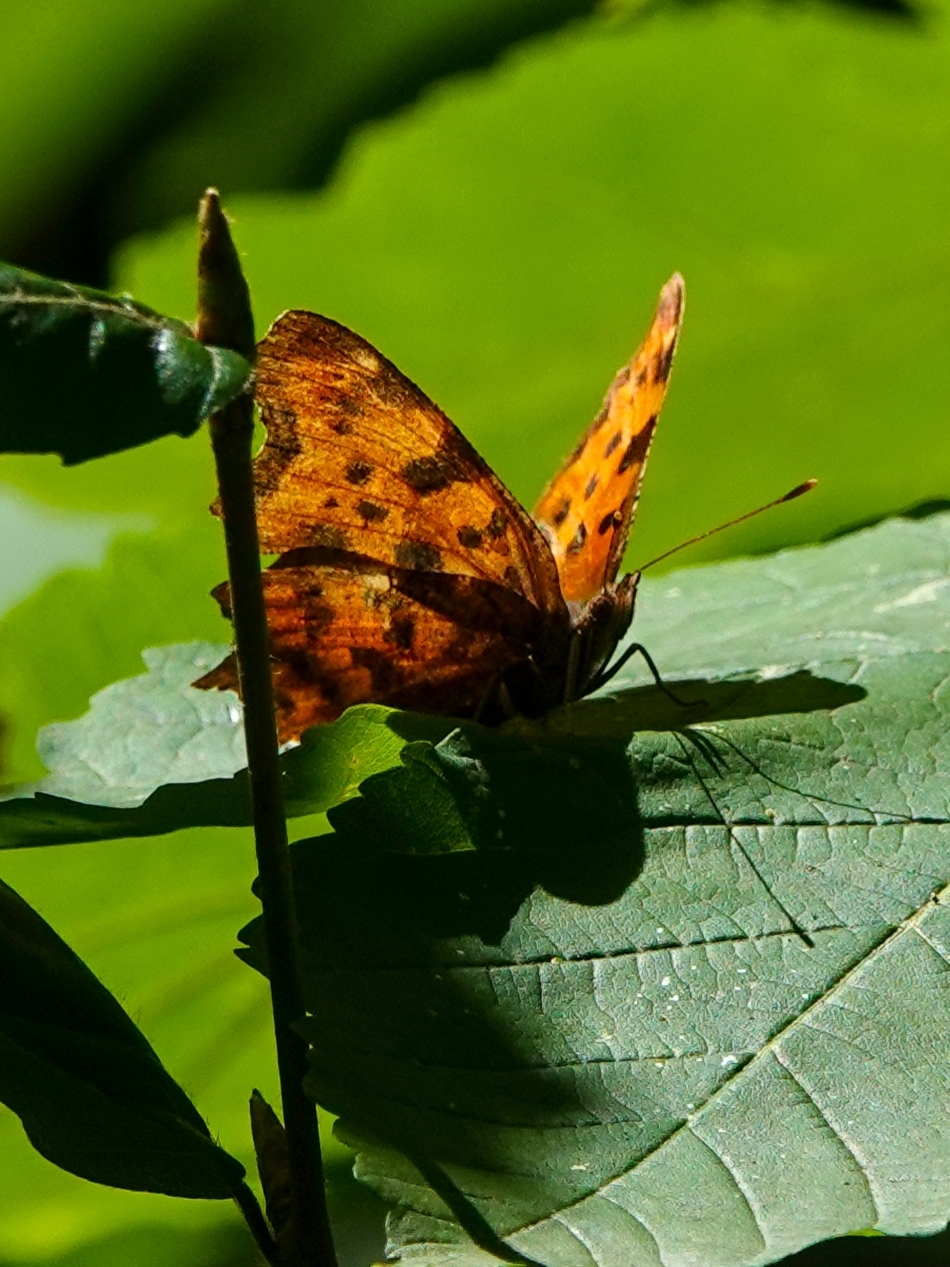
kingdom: Animalia
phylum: Arthropoda
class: Insecta
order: Lepidoptera
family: Nymphalidae
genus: Polygonia
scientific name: Polygonia c-album
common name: Comma
